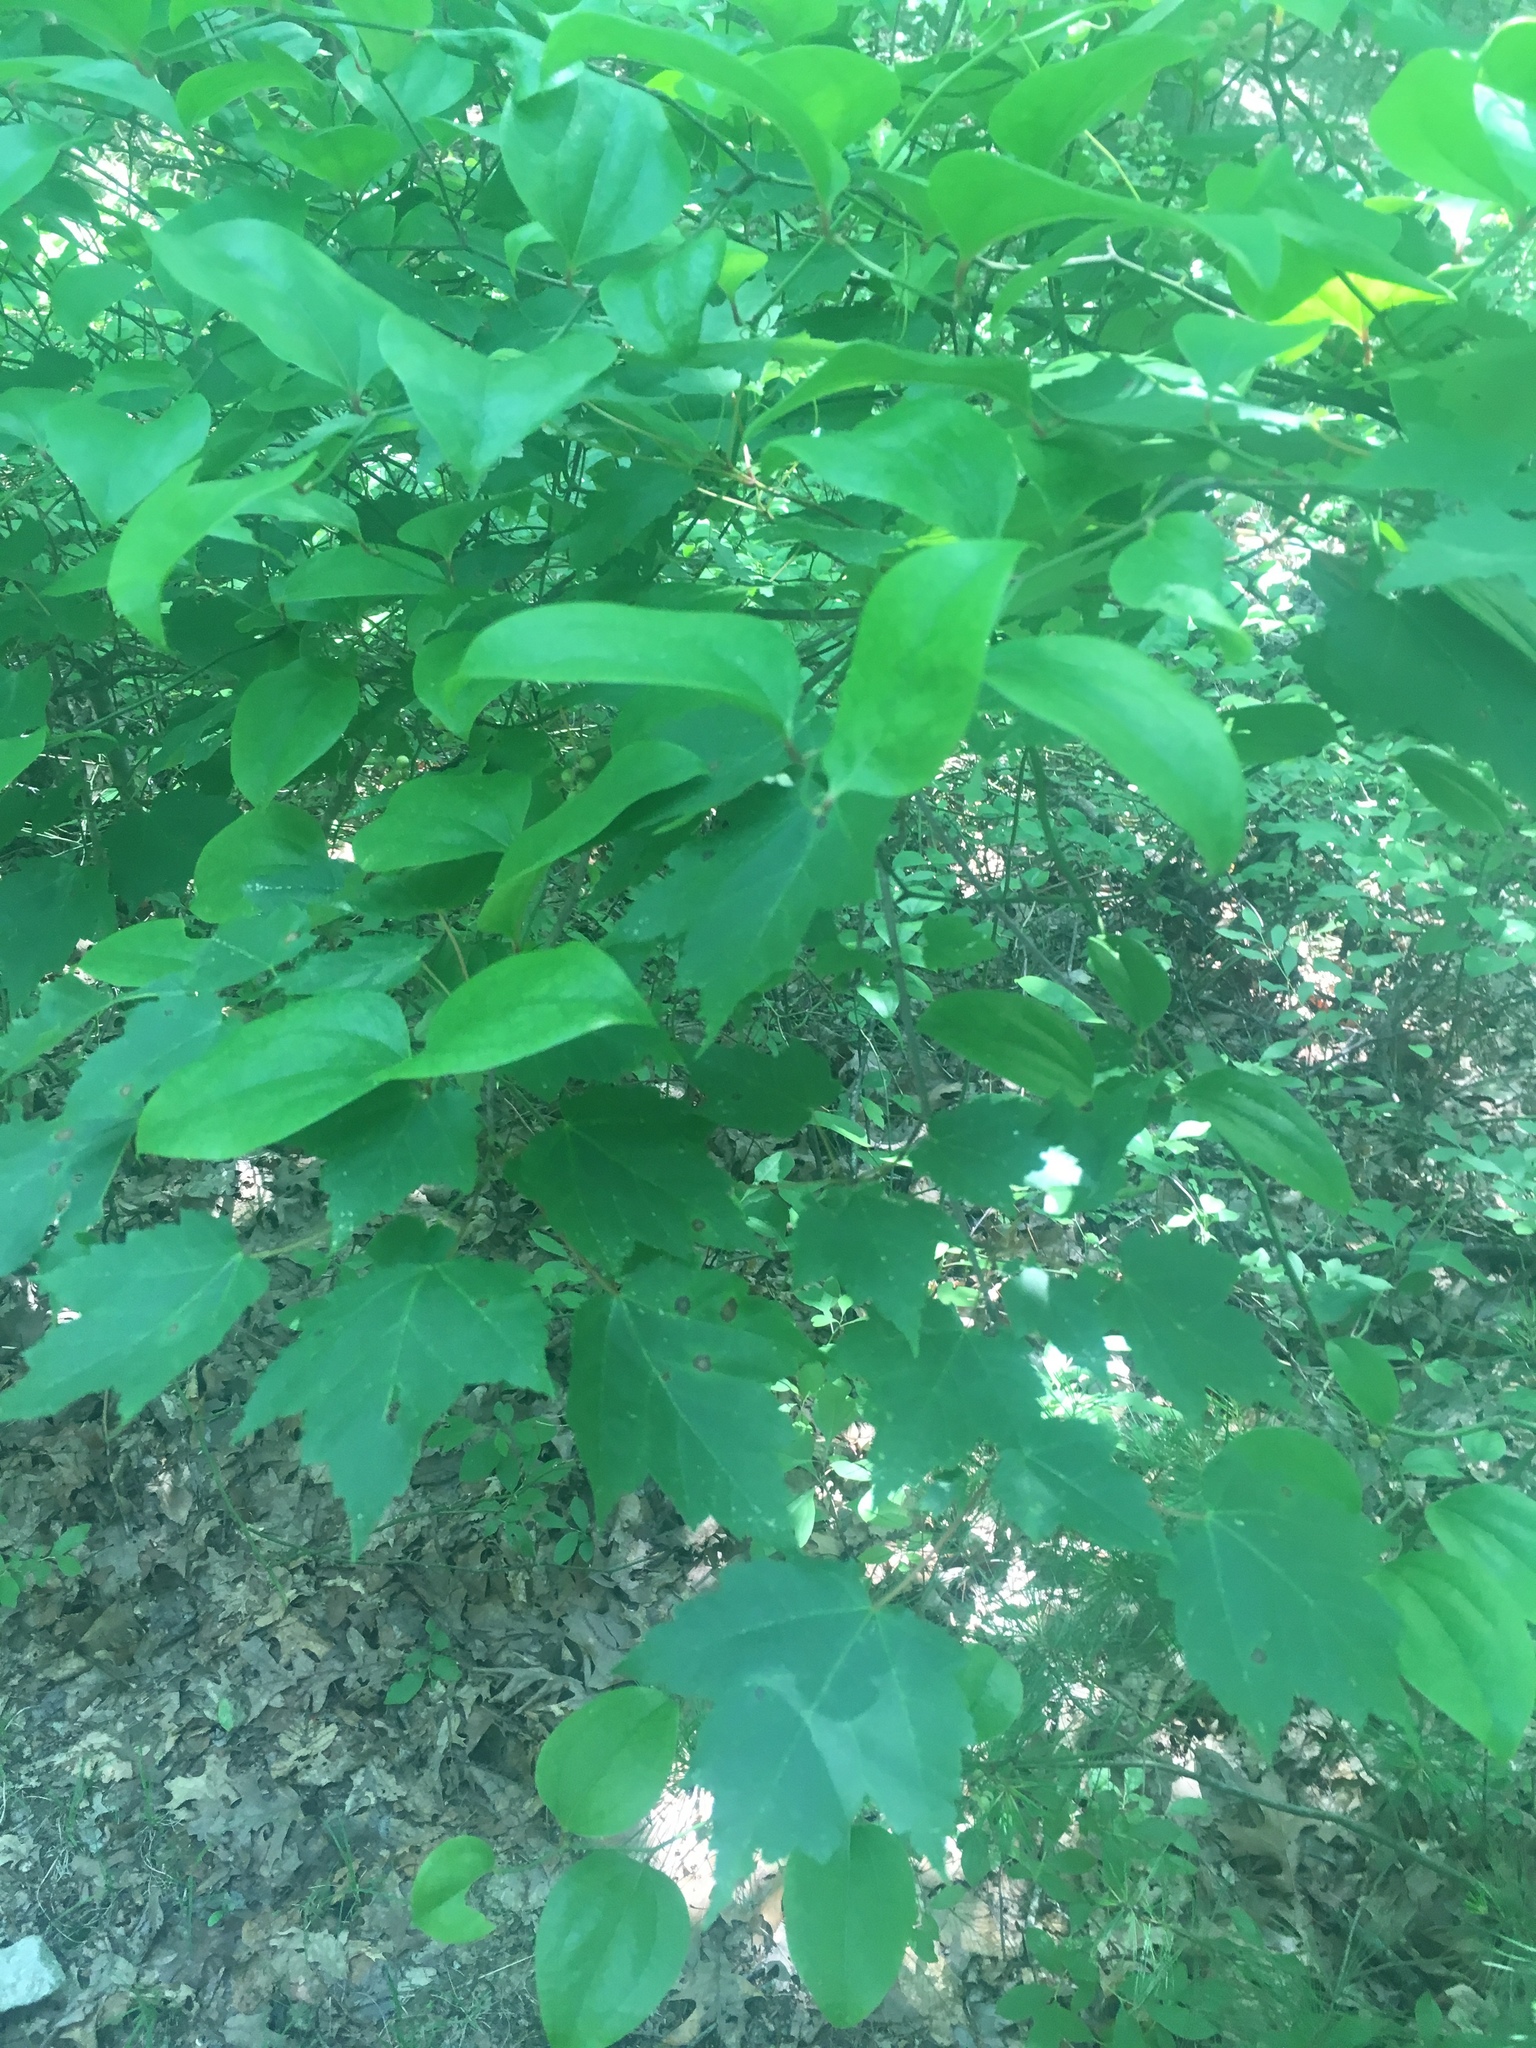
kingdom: Plantae
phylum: Tracheophyta
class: Liliopsida
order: Liliales
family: Smilacaceae
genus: Smilax
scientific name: Smilax rotundifolia
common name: Bullbriar
